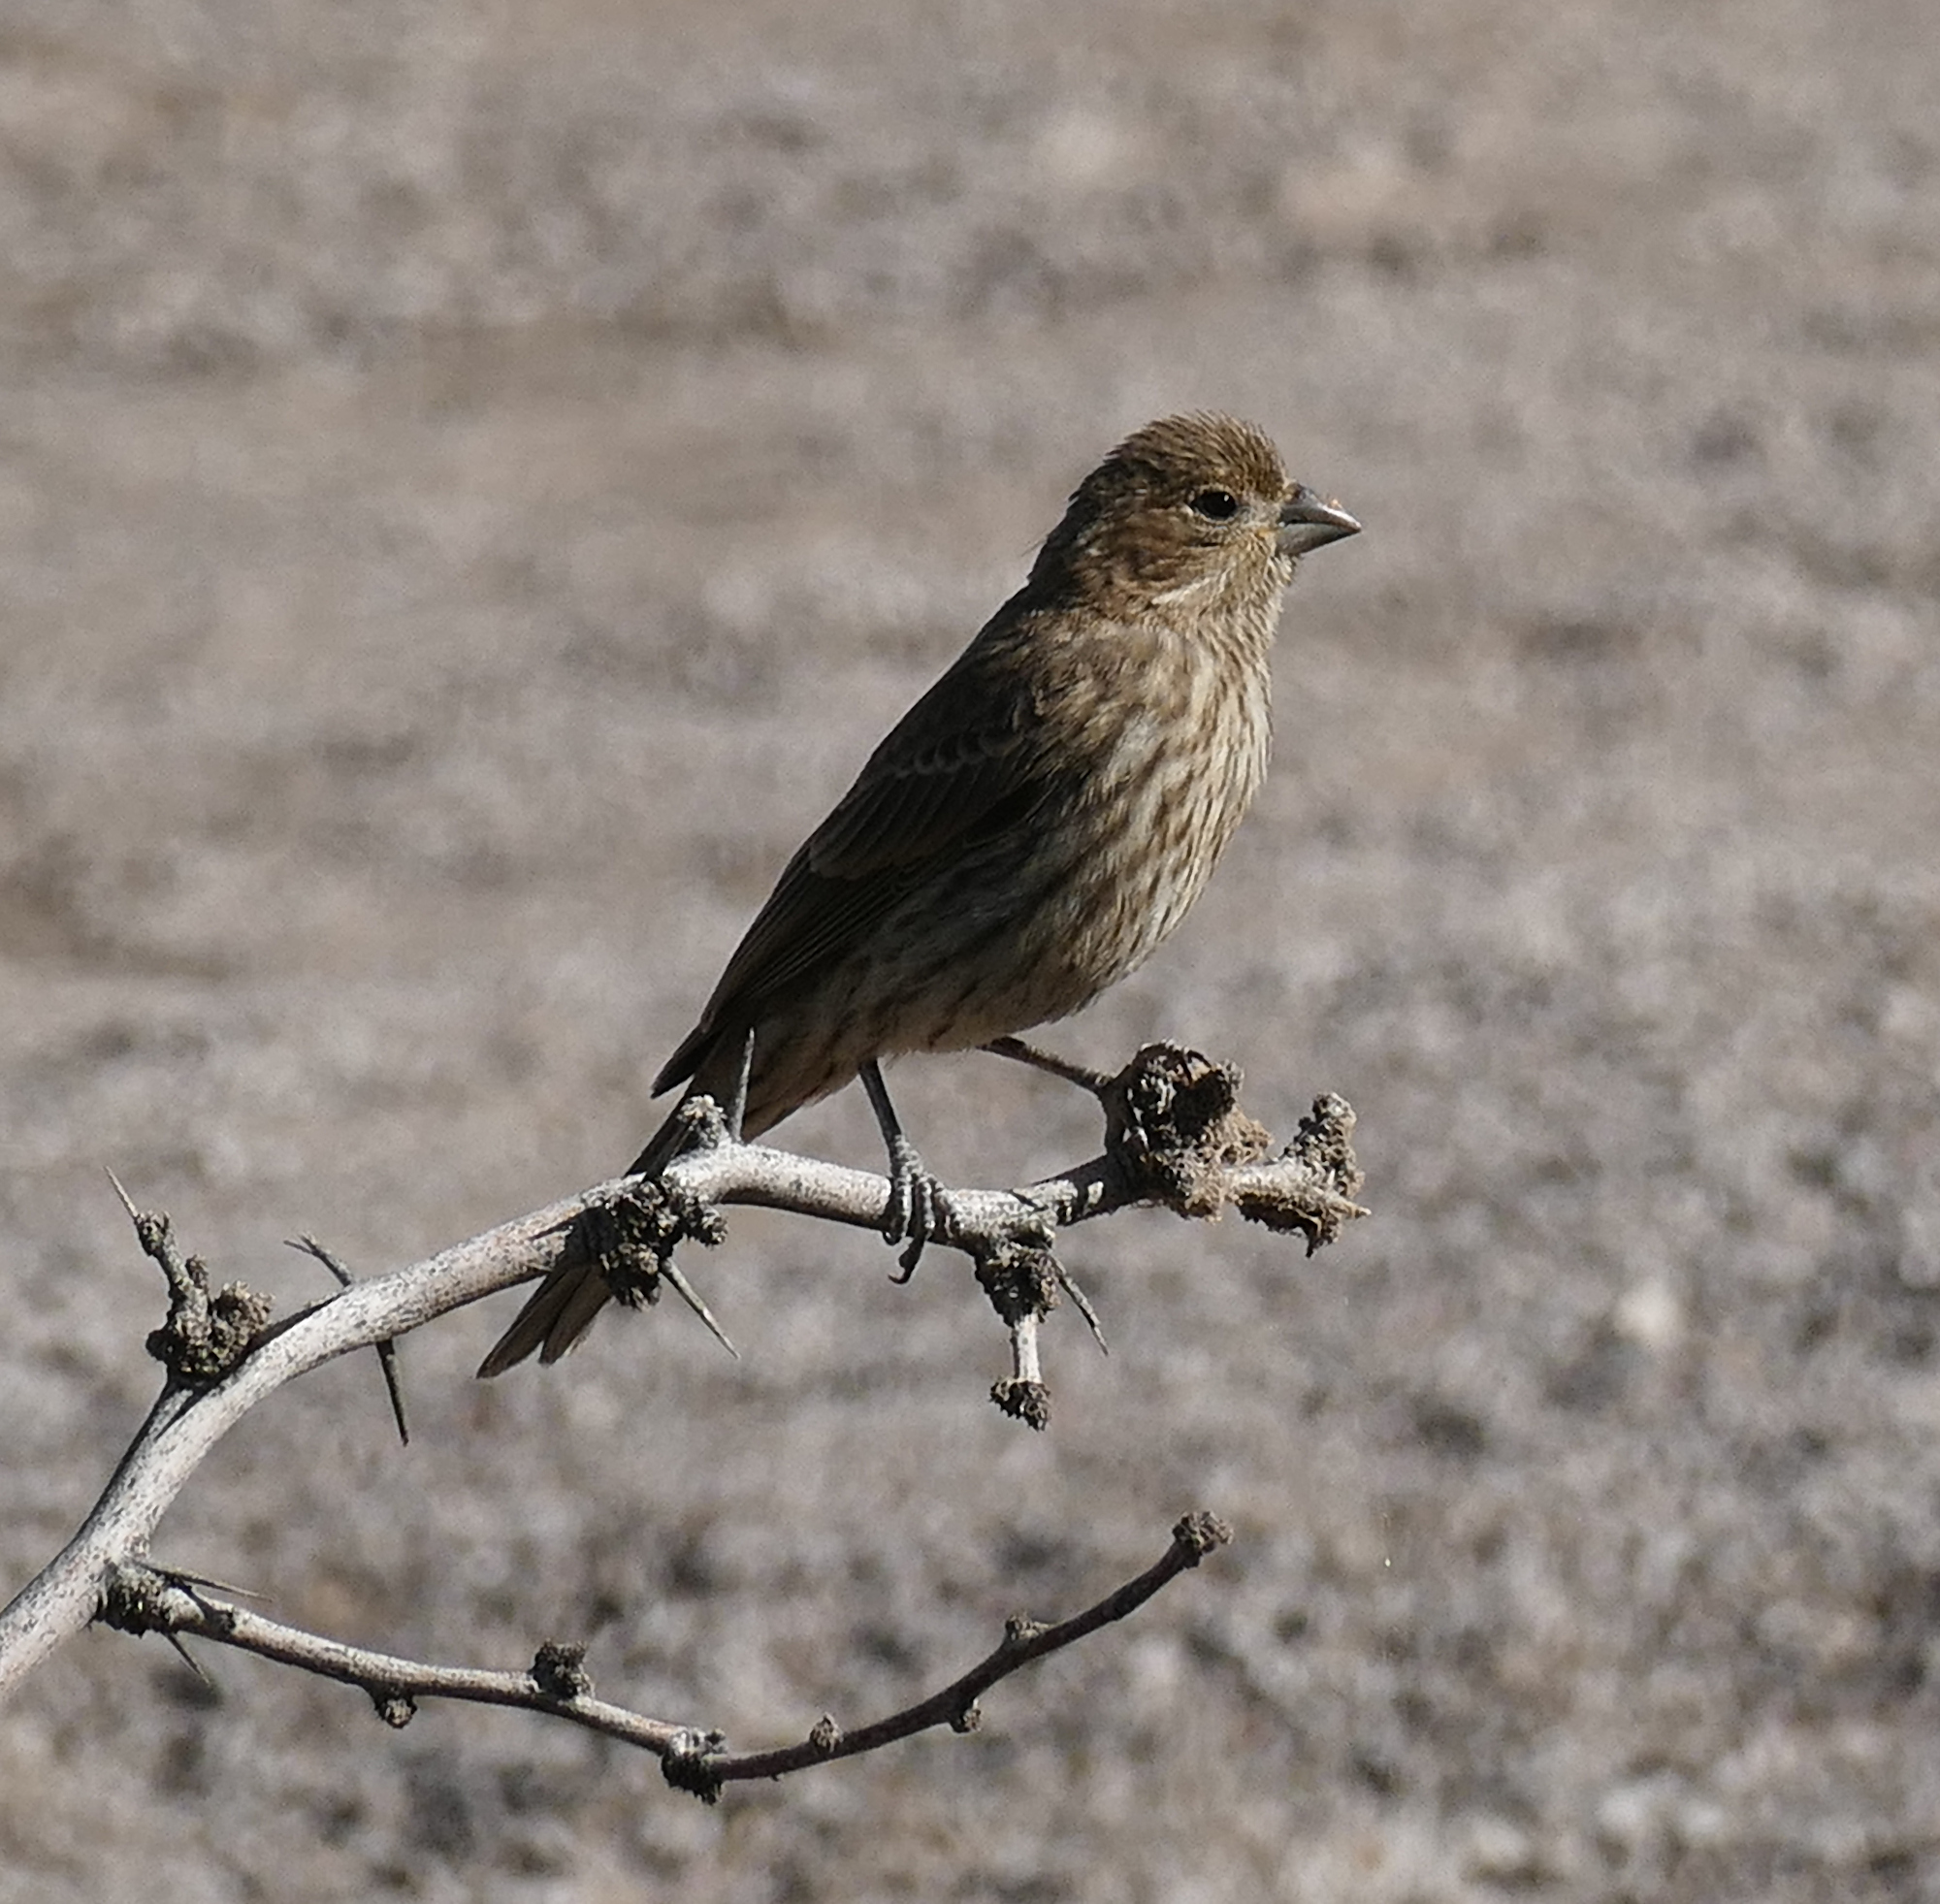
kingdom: Animalia
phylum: Chordata
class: Aves
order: Passeriformes
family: Fringillidae
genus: Haemorhous
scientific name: Haemorhous mexicanus
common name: House finch
